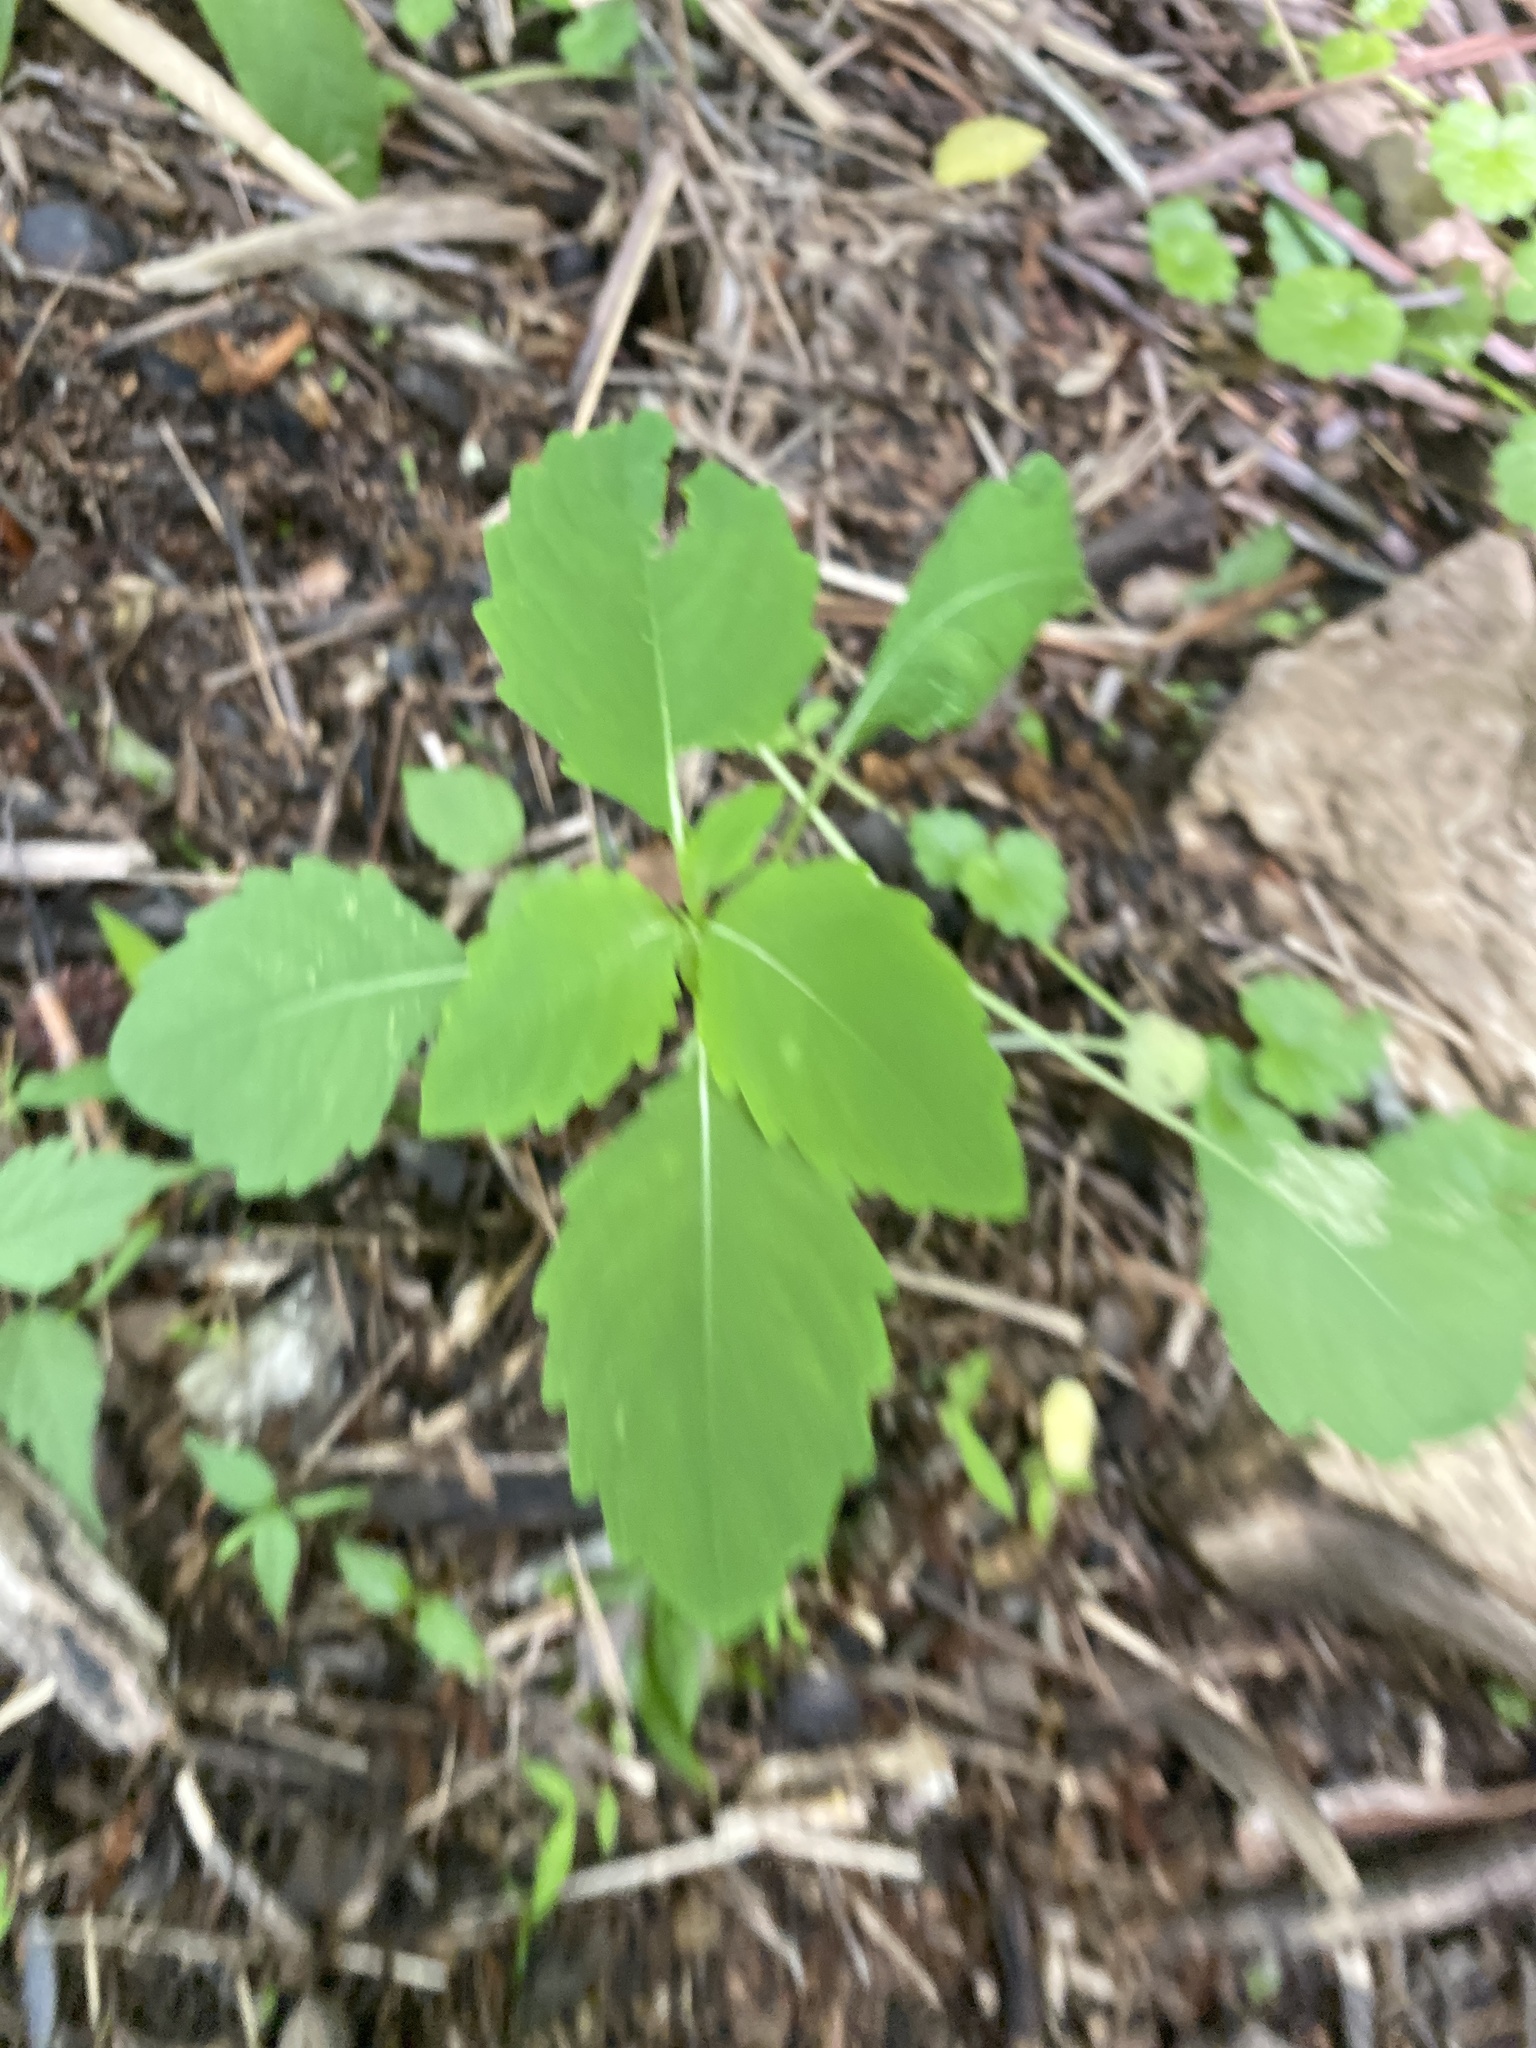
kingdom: Plantae
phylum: Tracheophyta
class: Magnoliopsida
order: Ericales
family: Balsaminaceae
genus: Impatiens
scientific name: Impatiens capensis
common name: Orange balsam
